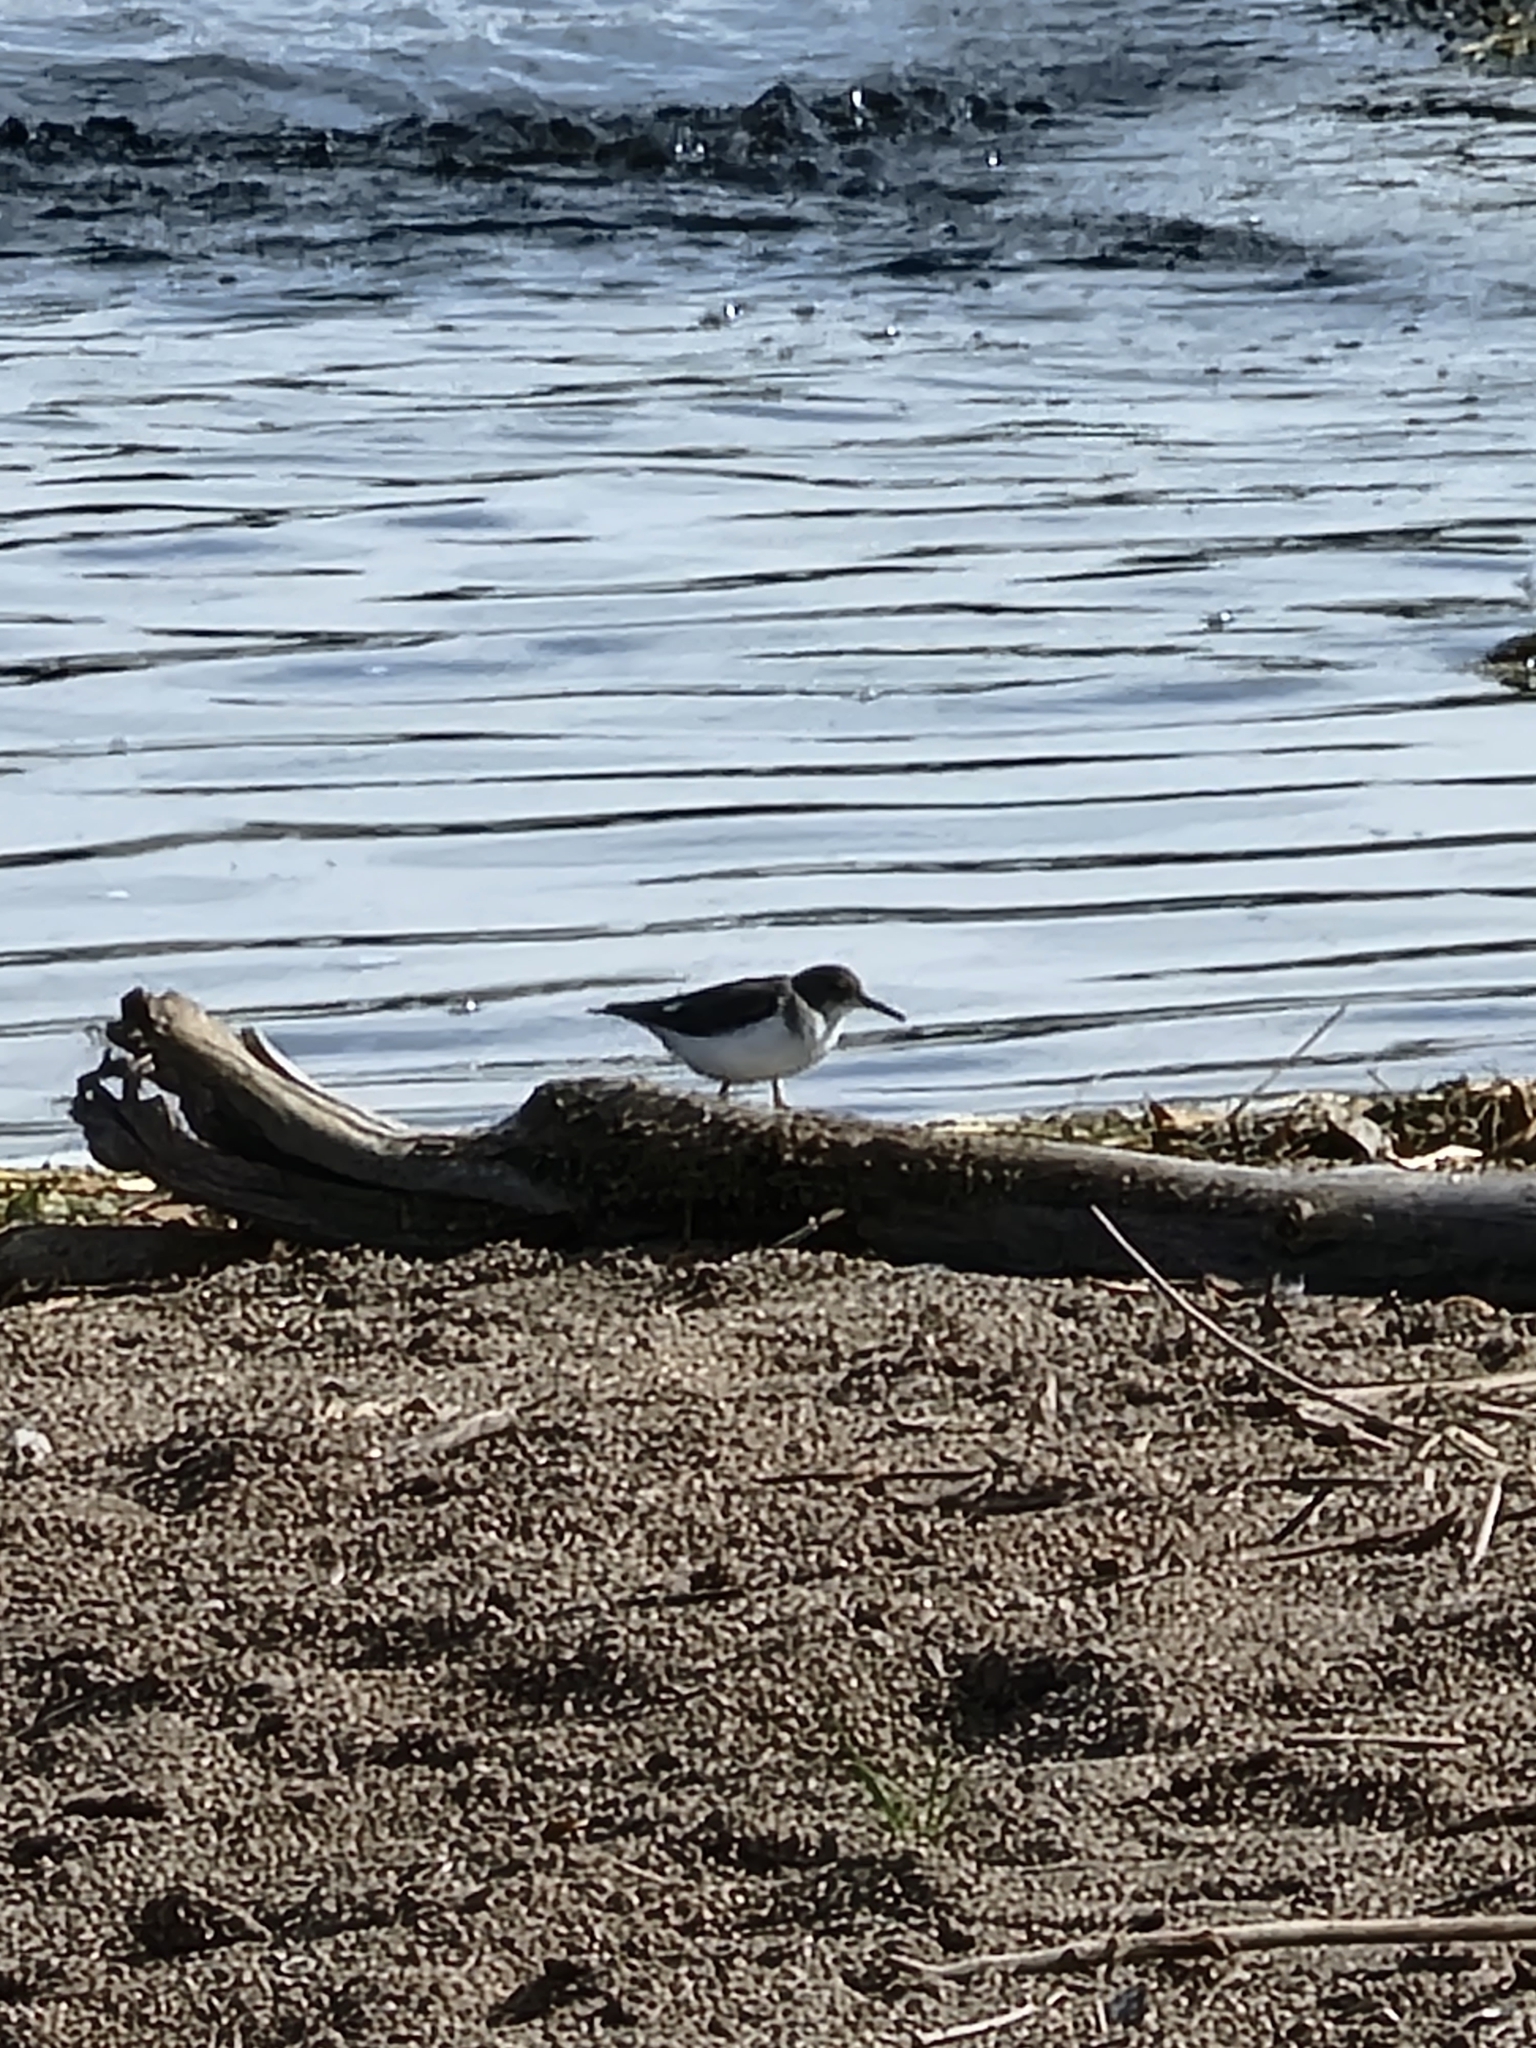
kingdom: Animalia
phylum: Chordata
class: Aves
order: Charadriiformes
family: Scolopacidae
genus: Actitis
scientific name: Actitis macularius
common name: Spotted sandpiper
